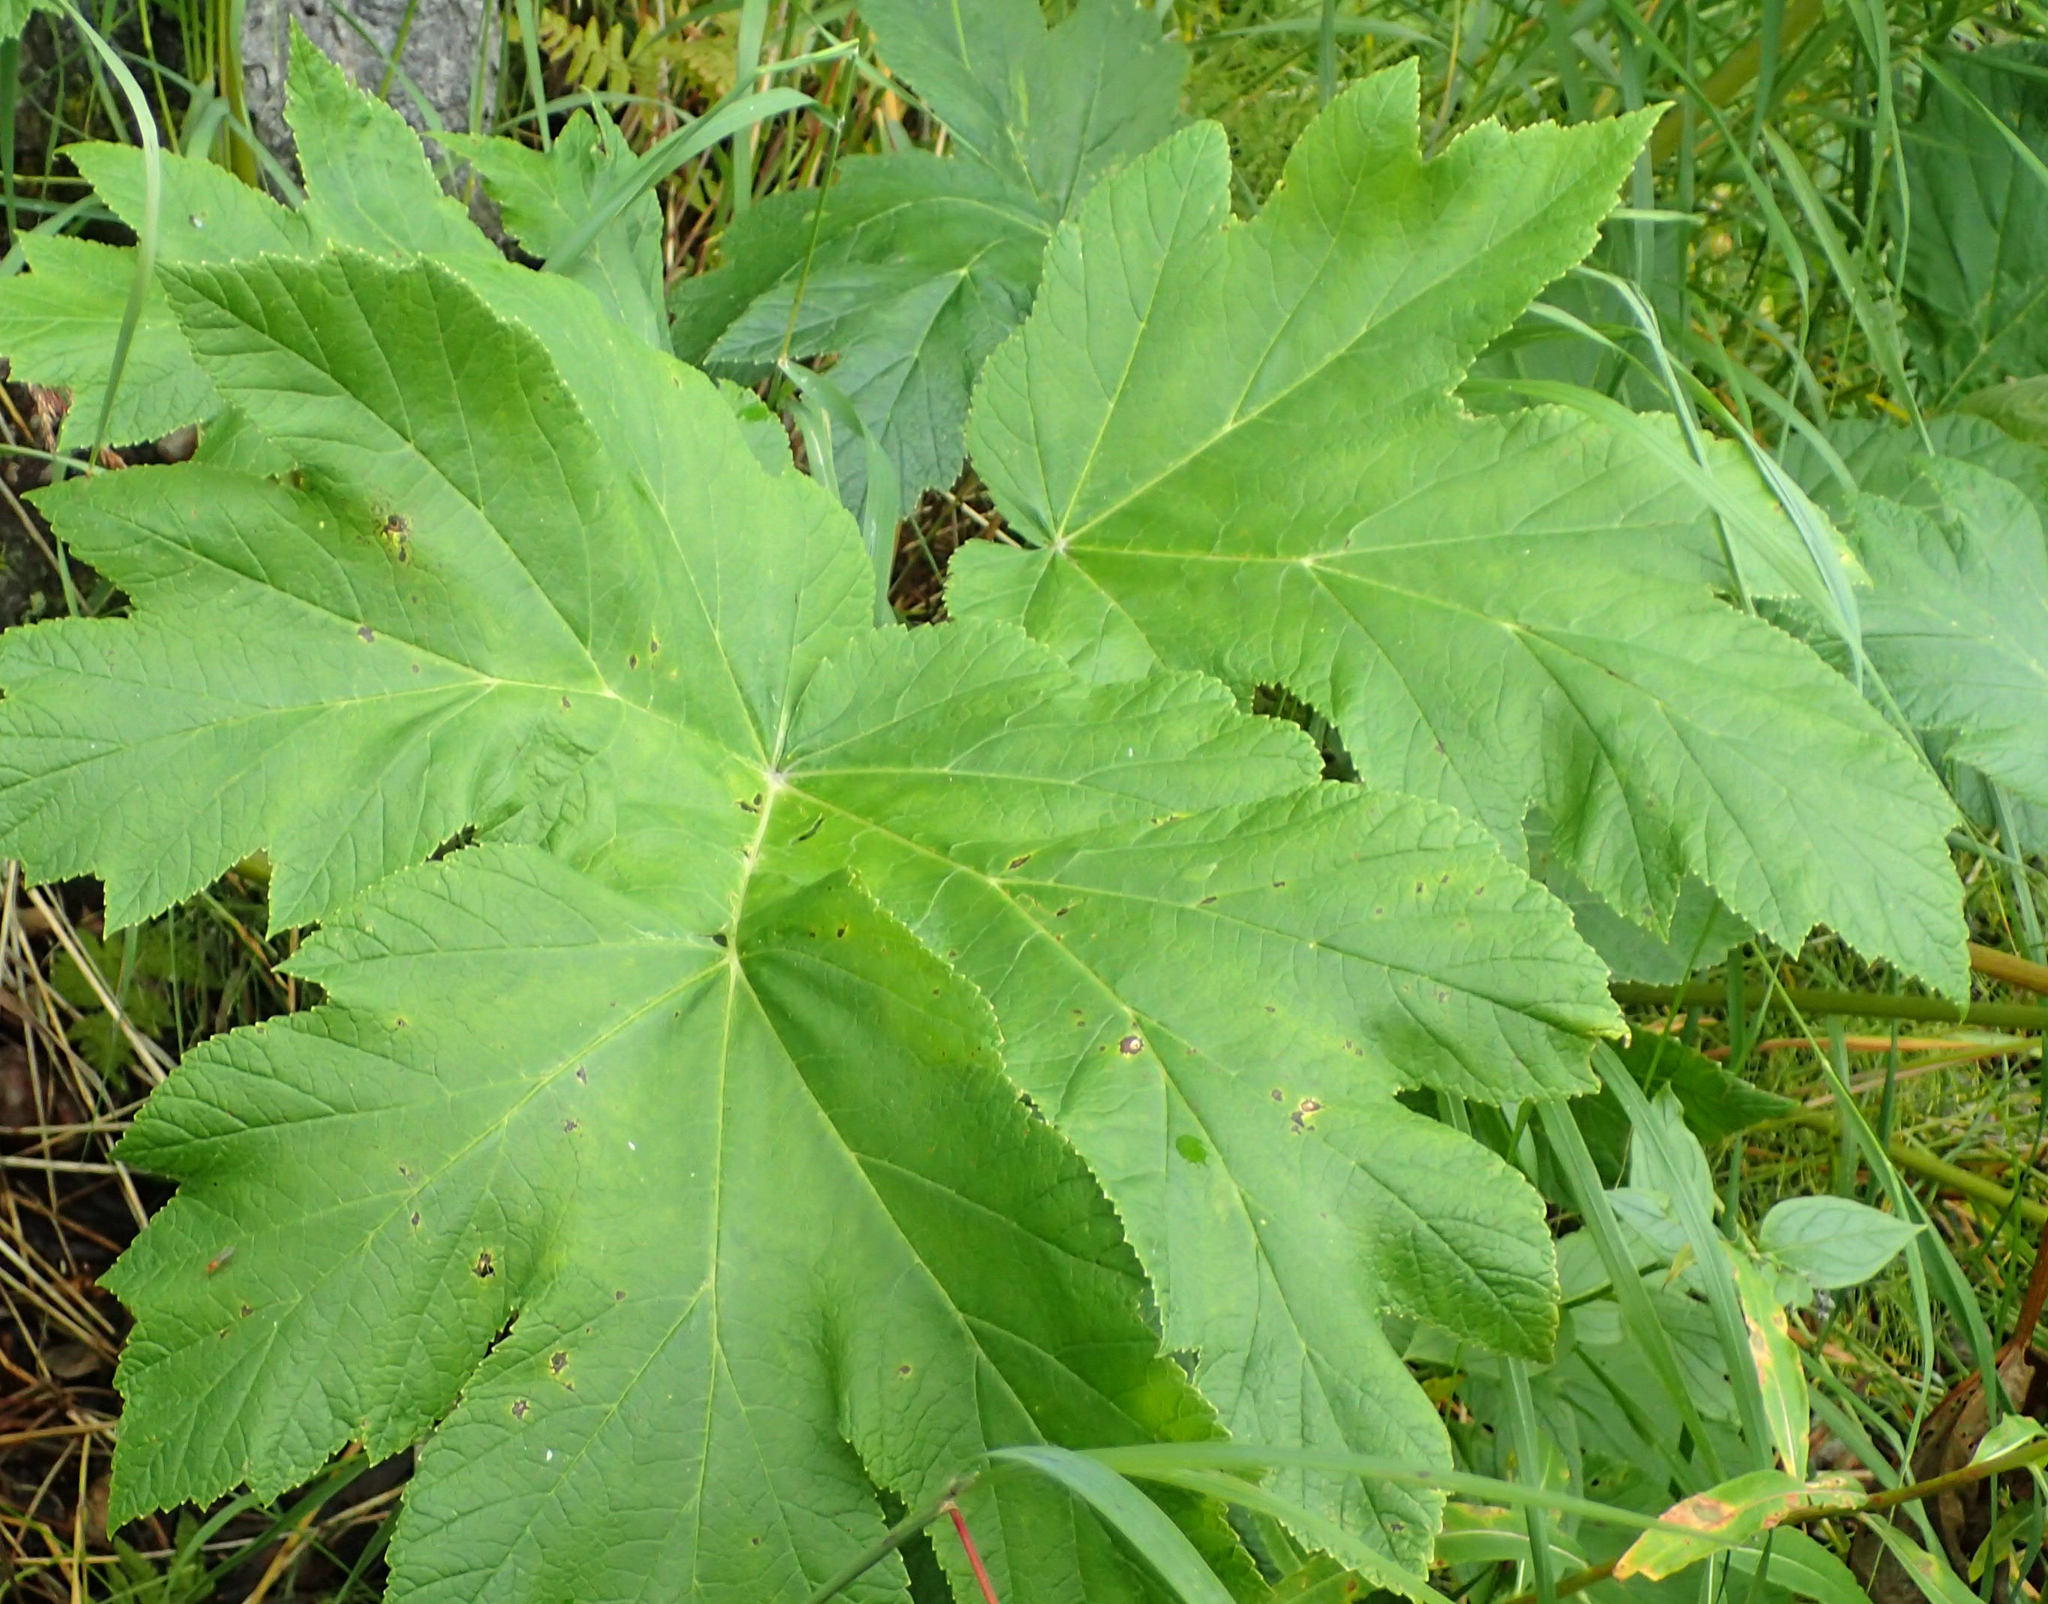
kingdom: Plantae
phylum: Tracheophyta
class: Magnoliopsida
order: Apiales
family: Apiaceae
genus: Heracleum
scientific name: Heracleum maximum
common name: American cow parsnip
